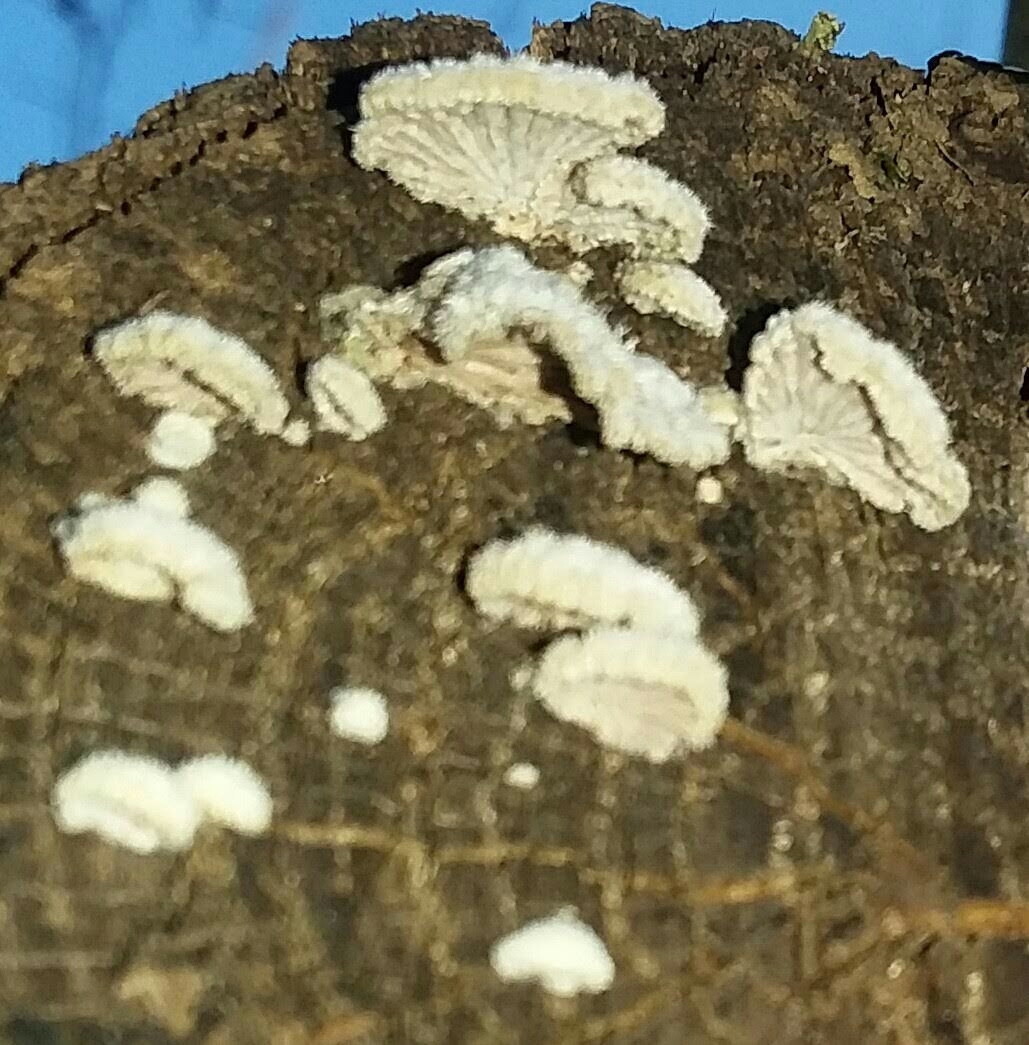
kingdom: Fungi
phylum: Basidiomycota
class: Agaricomycetes
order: Agaricales
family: Schizophyllaceae
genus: Schizophyllum
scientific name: Schizophyllum commune
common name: Common porecrust
